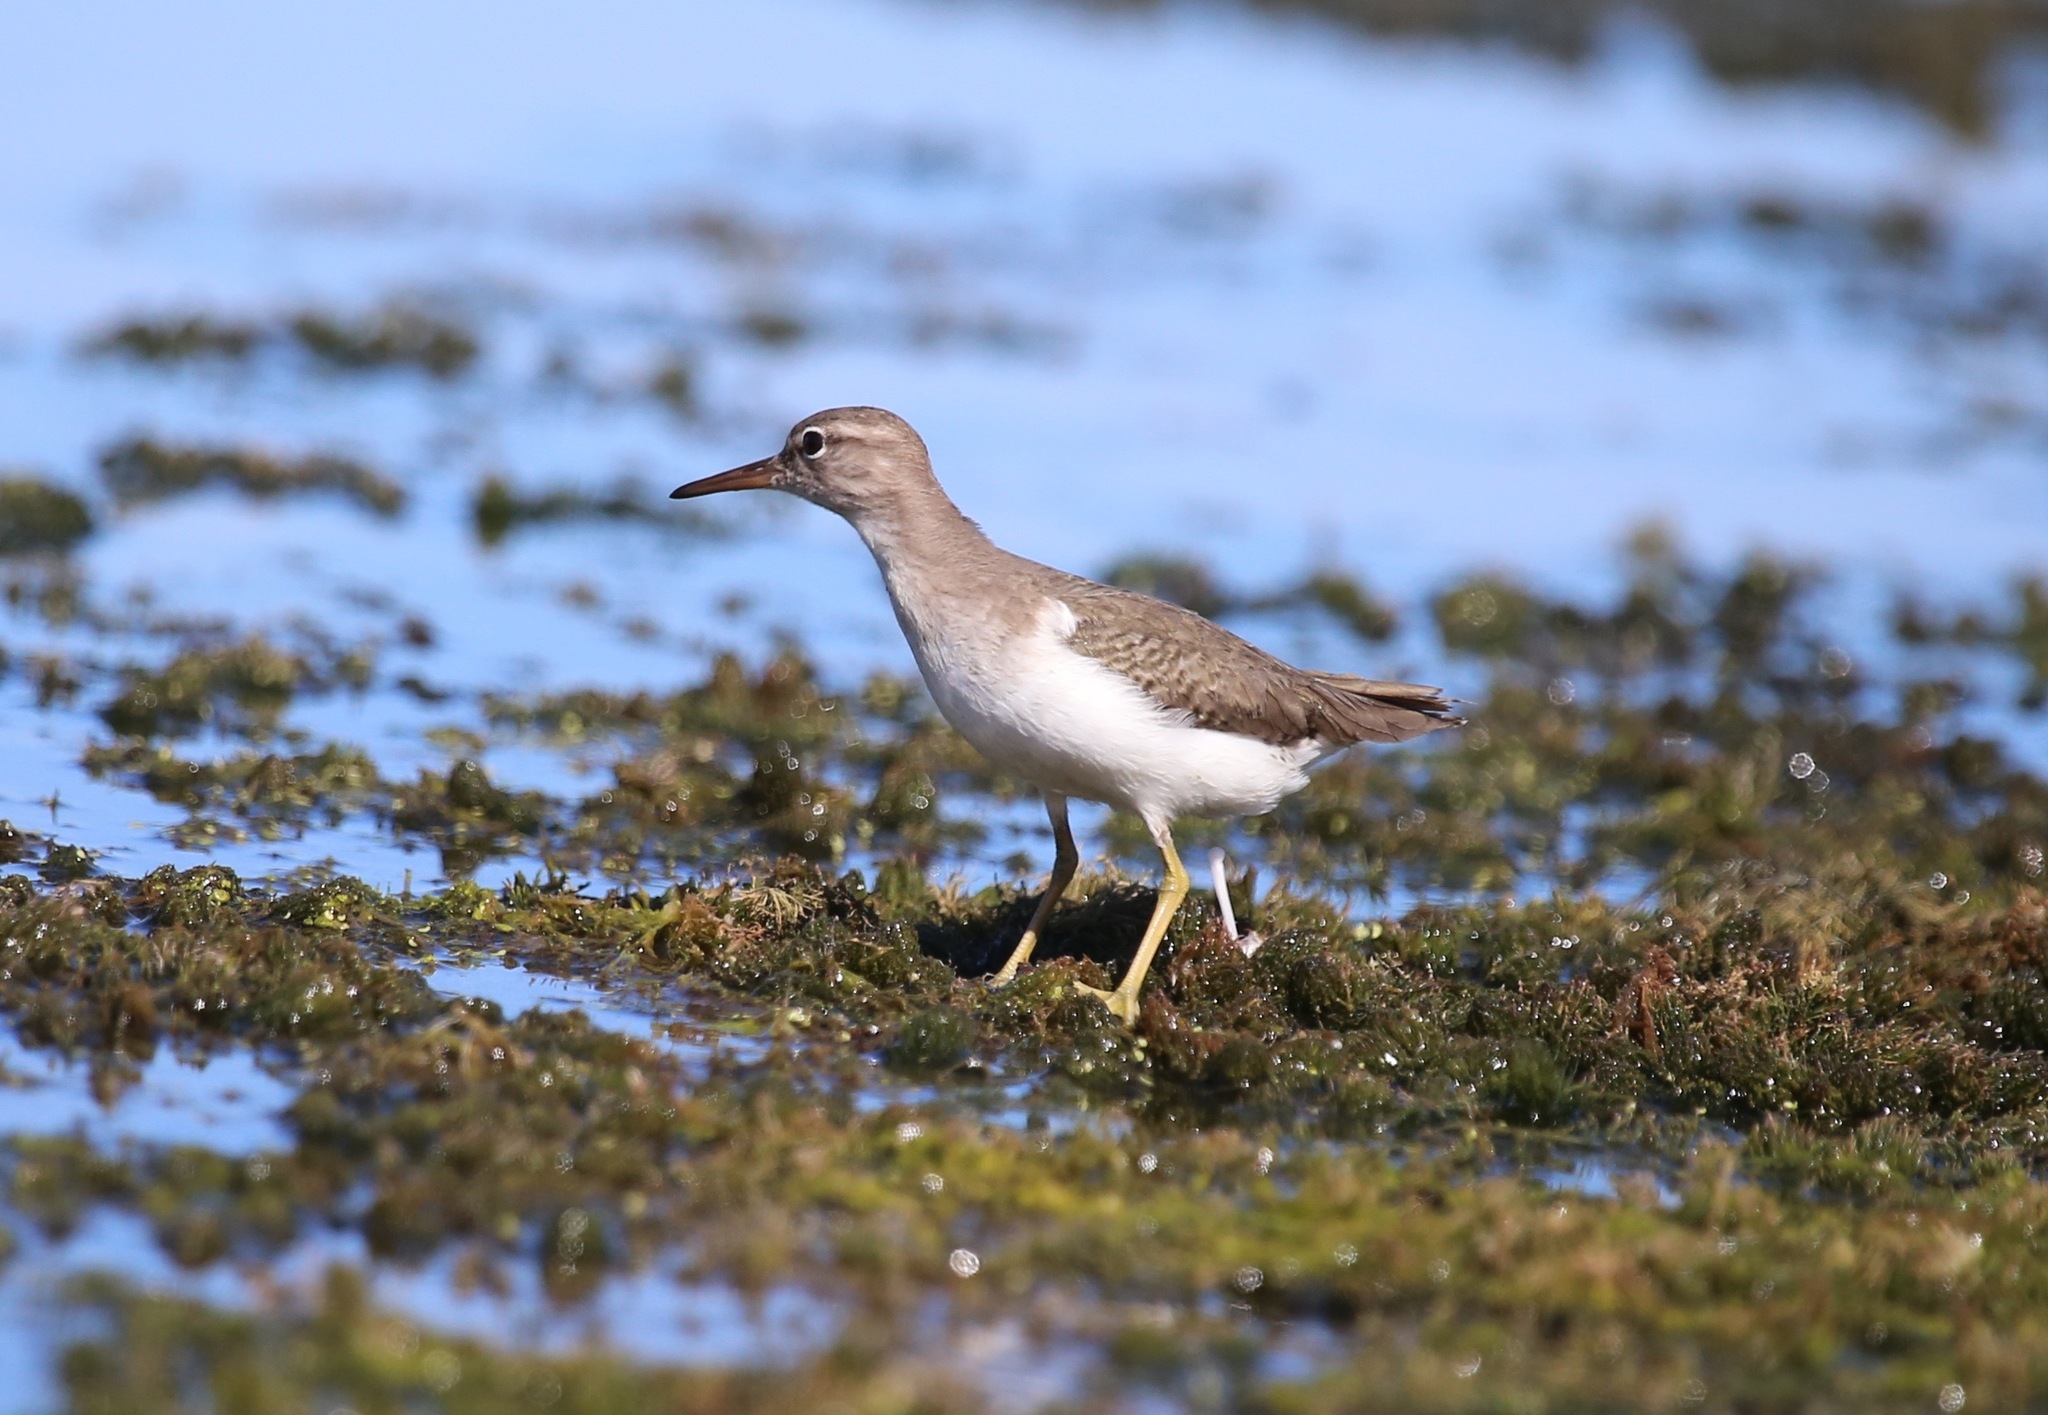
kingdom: Animalia
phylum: Chordata
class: Aves
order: Charadriiformes
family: Scolopacidae
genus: Actitis
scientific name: Actitis macularius
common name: Spotted sandpiper
